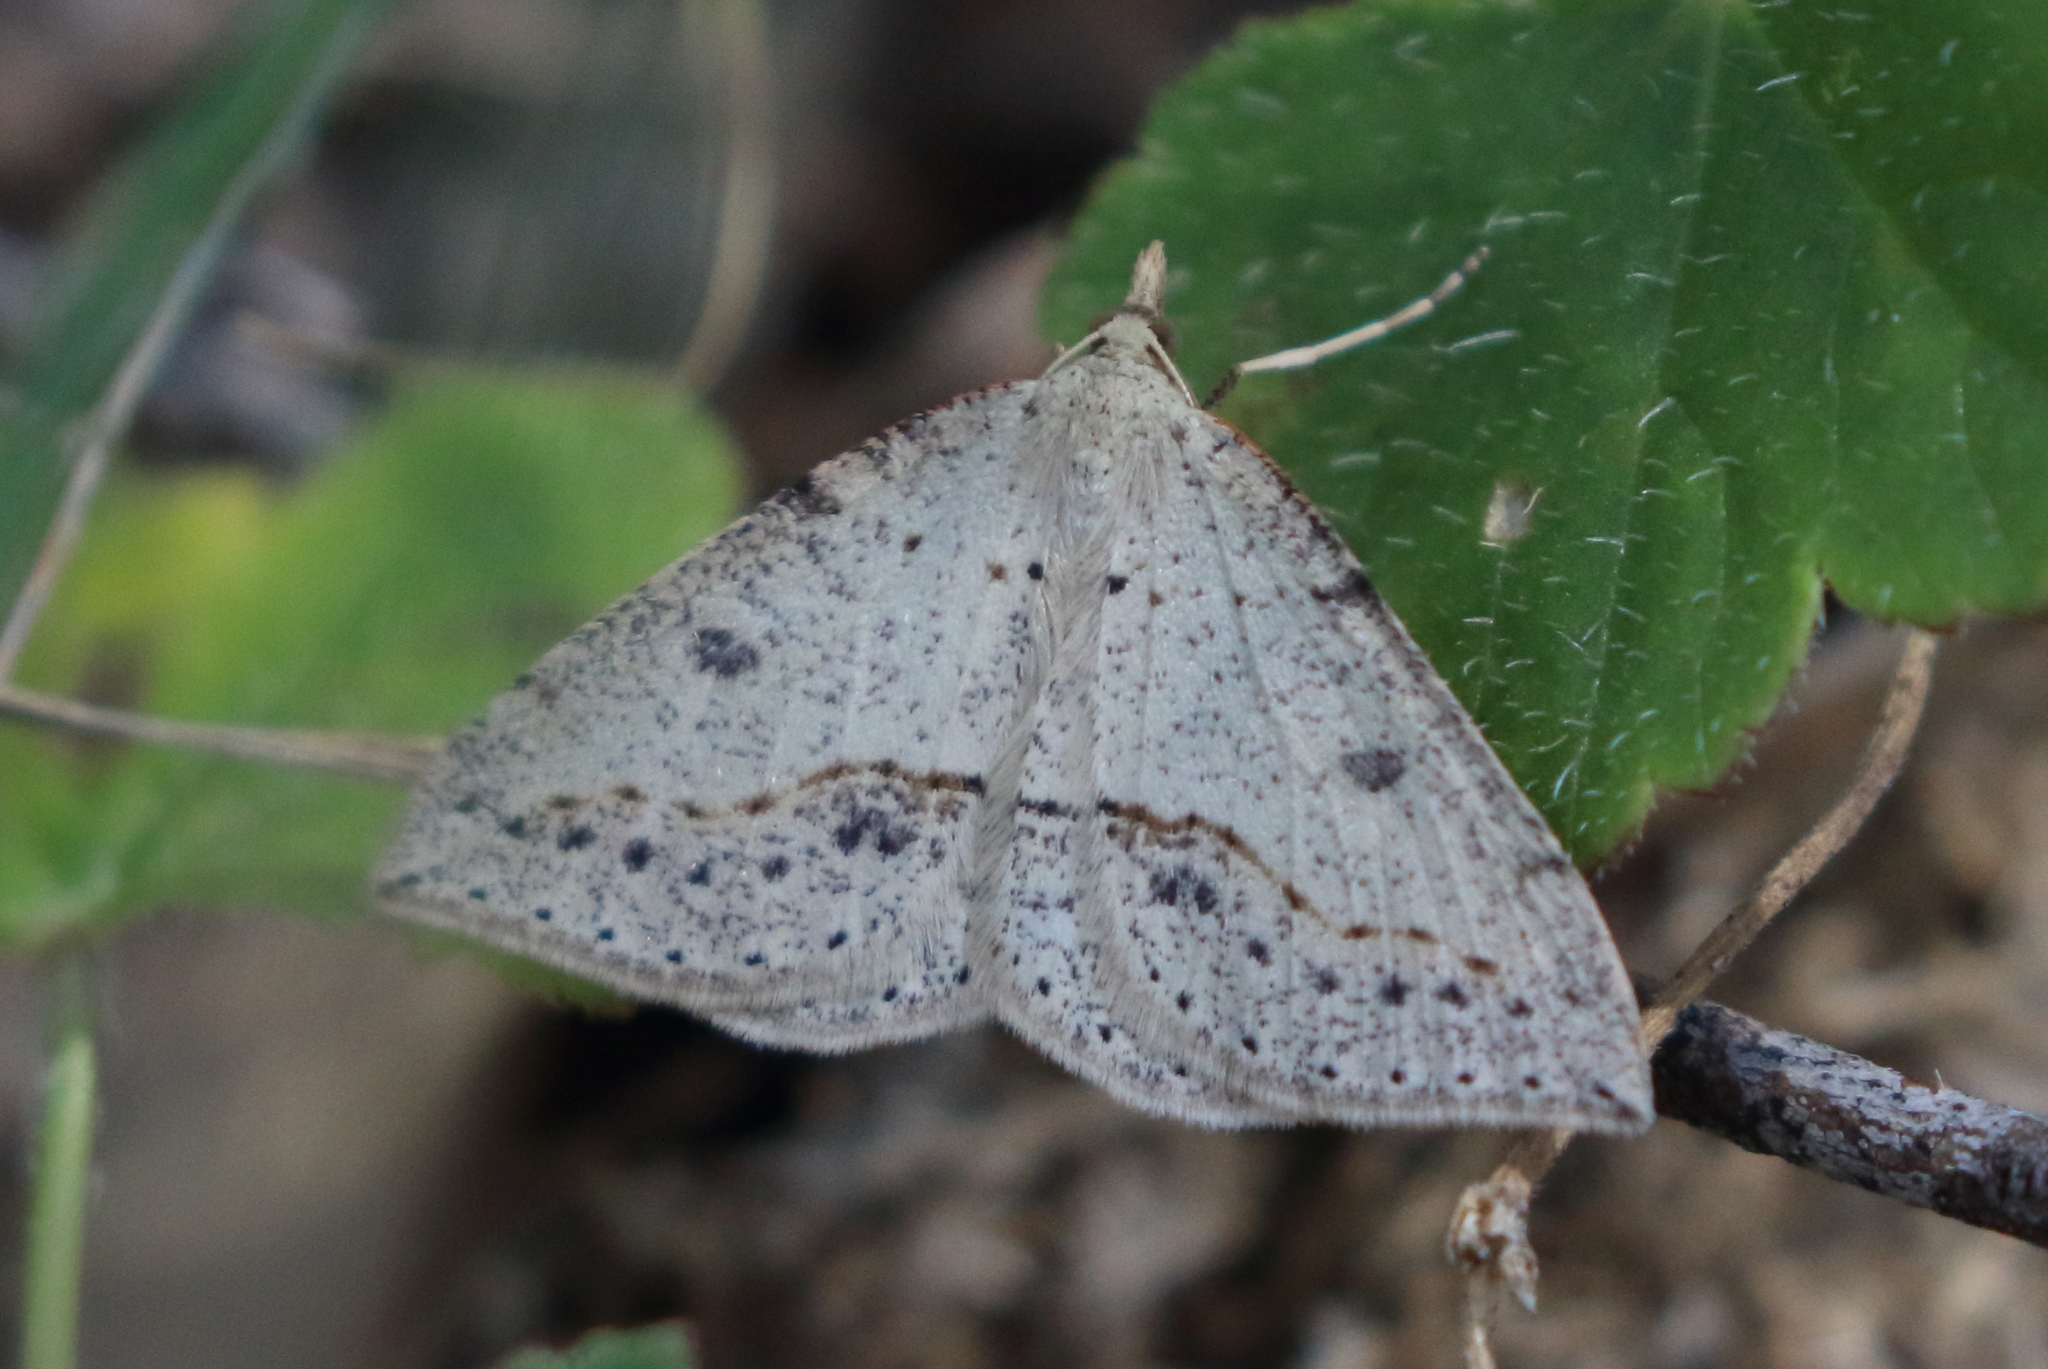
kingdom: Animalia
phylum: Arthropoda
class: Insecta
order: Lepidoptera
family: Geometridae
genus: Taxeotis
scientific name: Taxeotis stereospila
